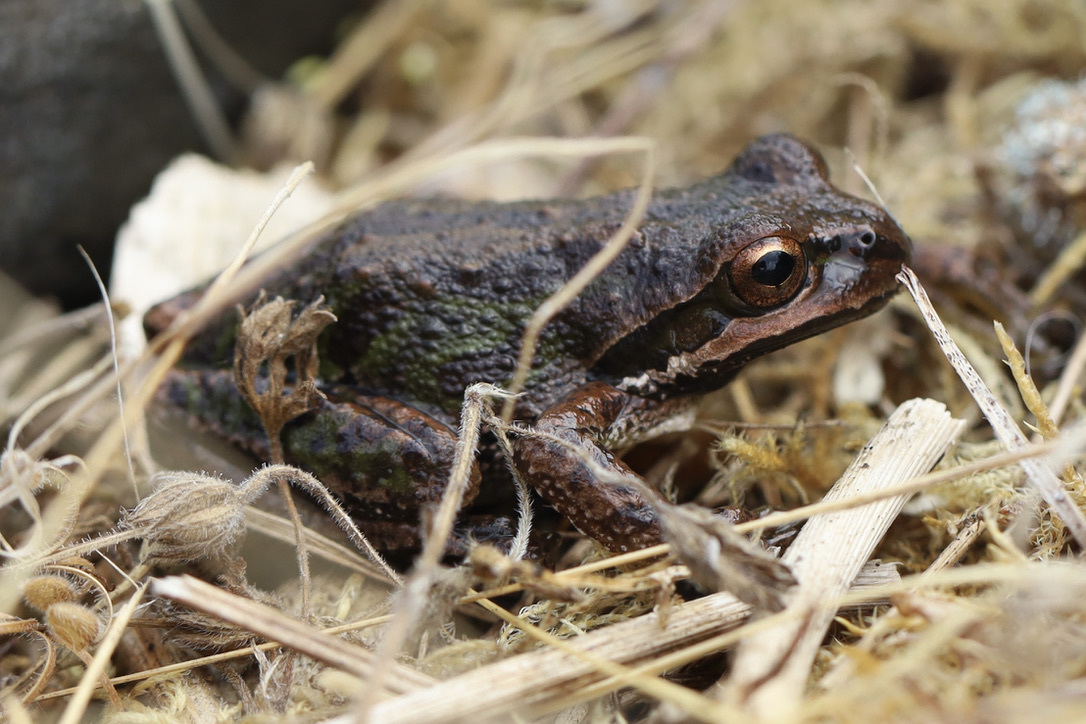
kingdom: Animalia
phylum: Chordata
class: Amphibia
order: Anura
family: Hylidae
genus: Pseudacris
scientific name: Pseudacris regilla
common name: Pacific chorus frog
